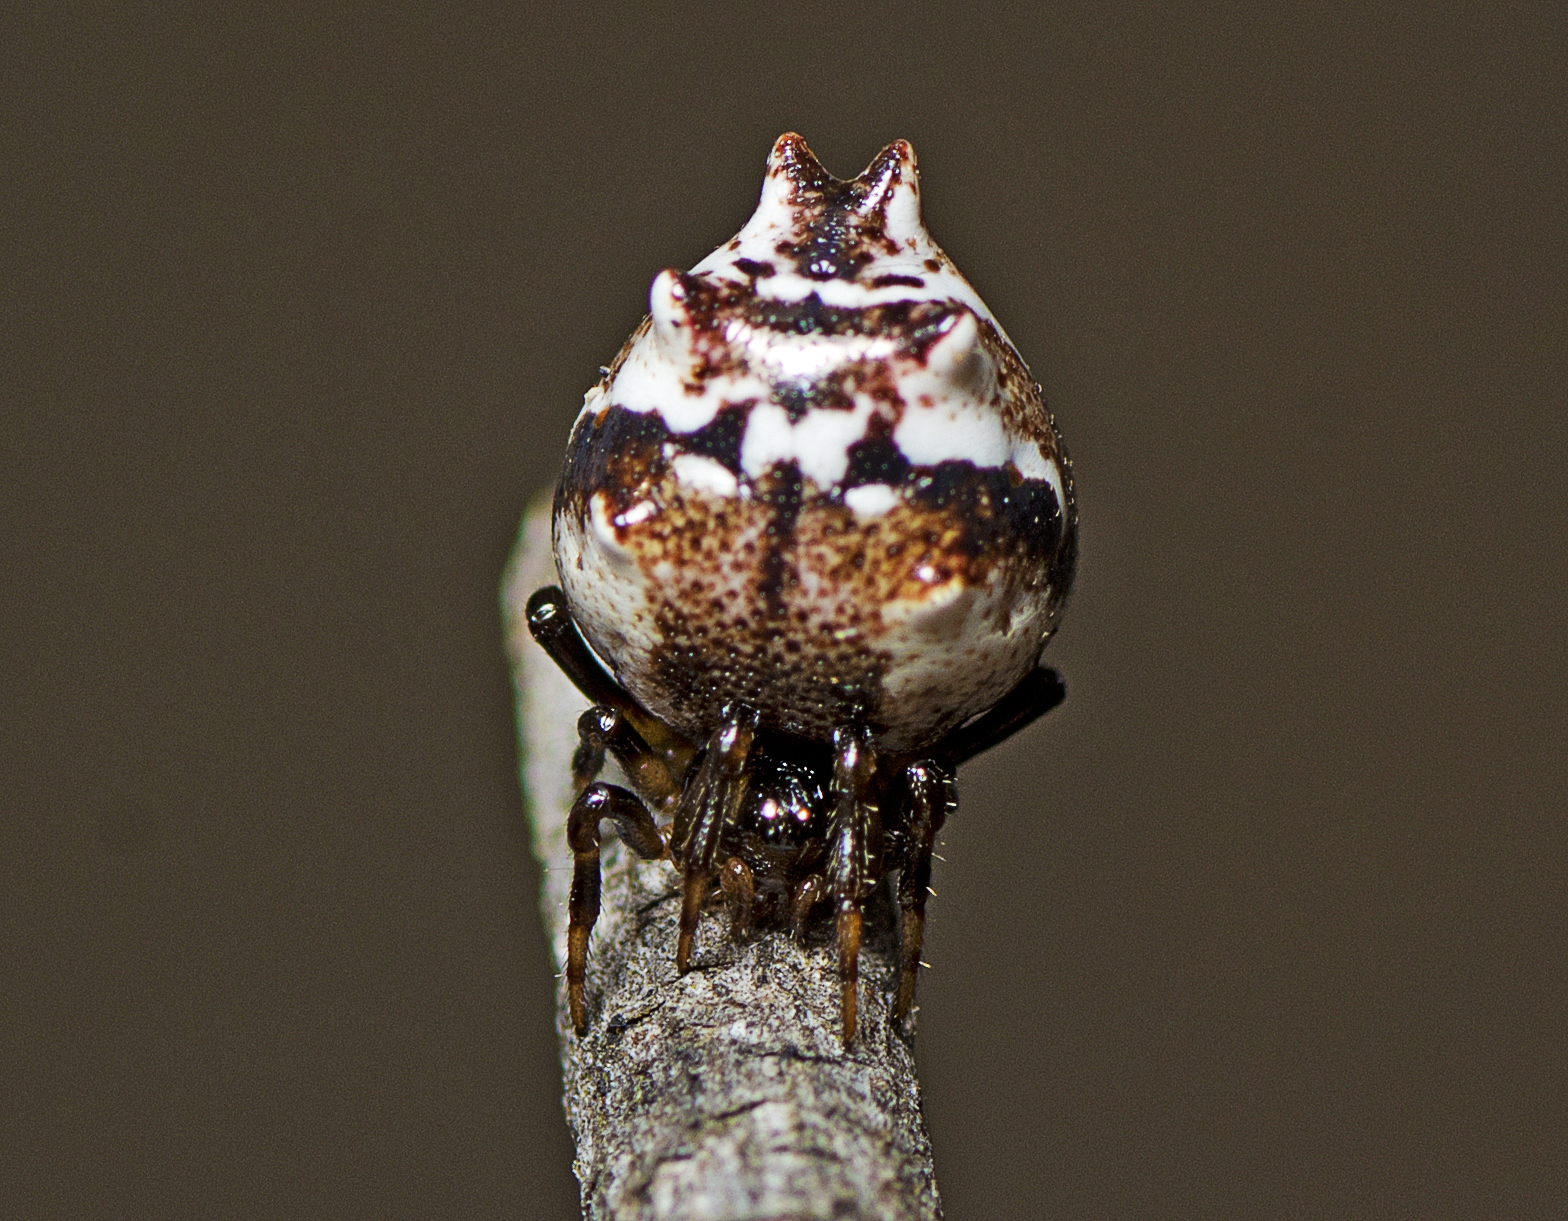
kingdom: Animalia
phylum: Arthropoda
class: Arachnida
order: Araneae
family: Theridiidae
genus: Phoroncidia
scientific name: Phoroncidia sextuberculata
